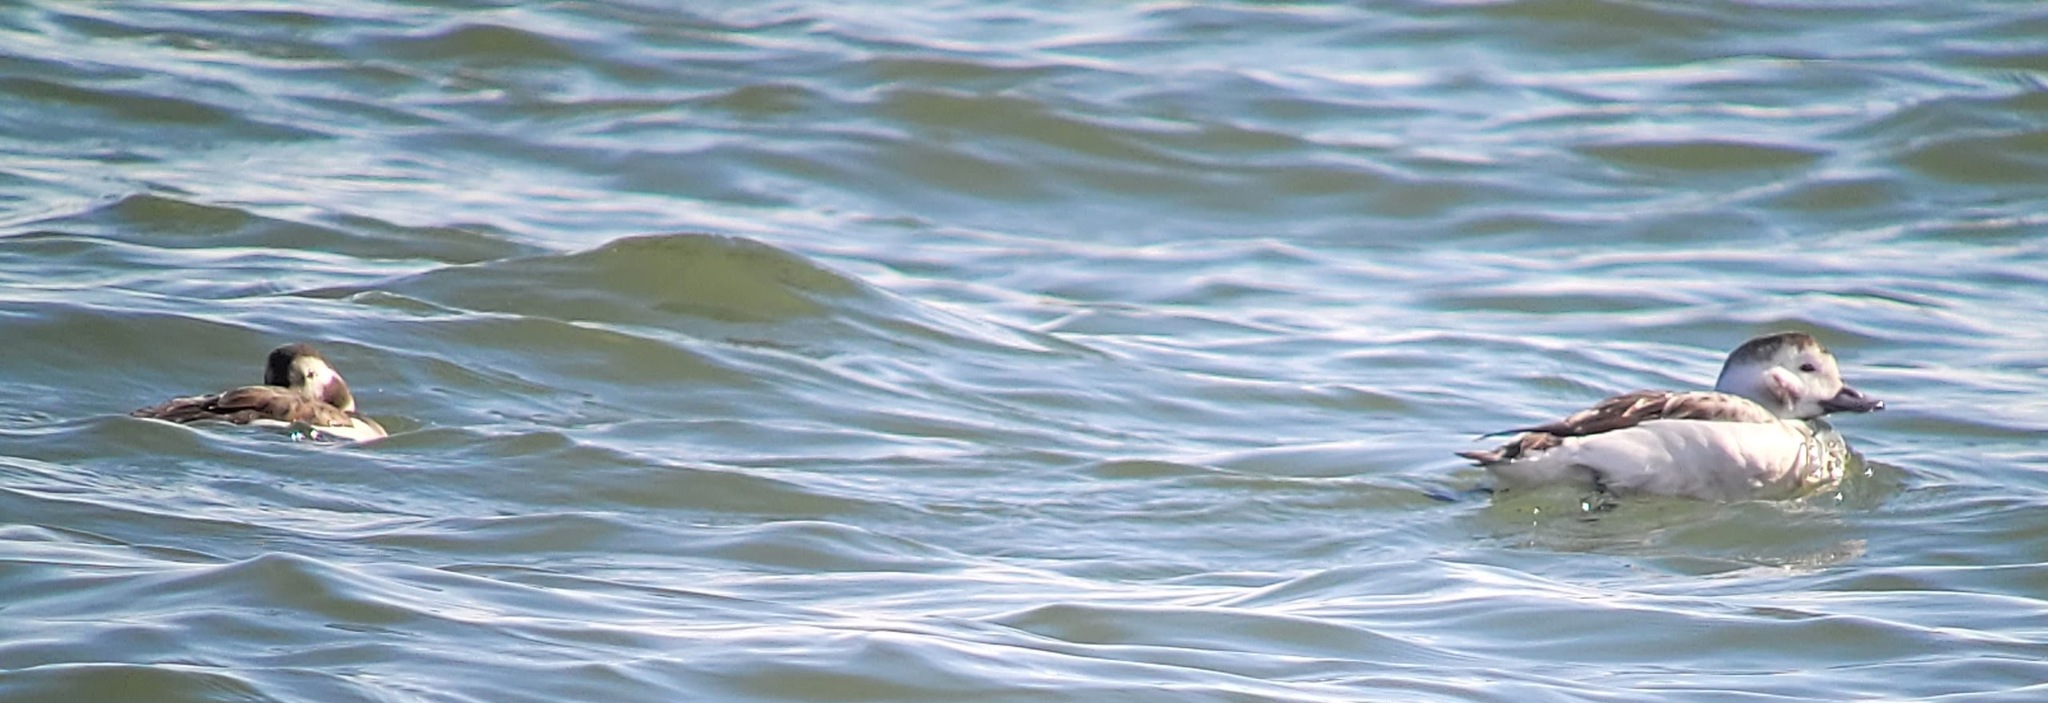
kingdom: Animalia
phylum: Chordata
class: Aves
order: Anseriformes
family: Anatidae
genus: Clangula
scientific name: Clangula hyemalis
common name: Long-tailed duck
